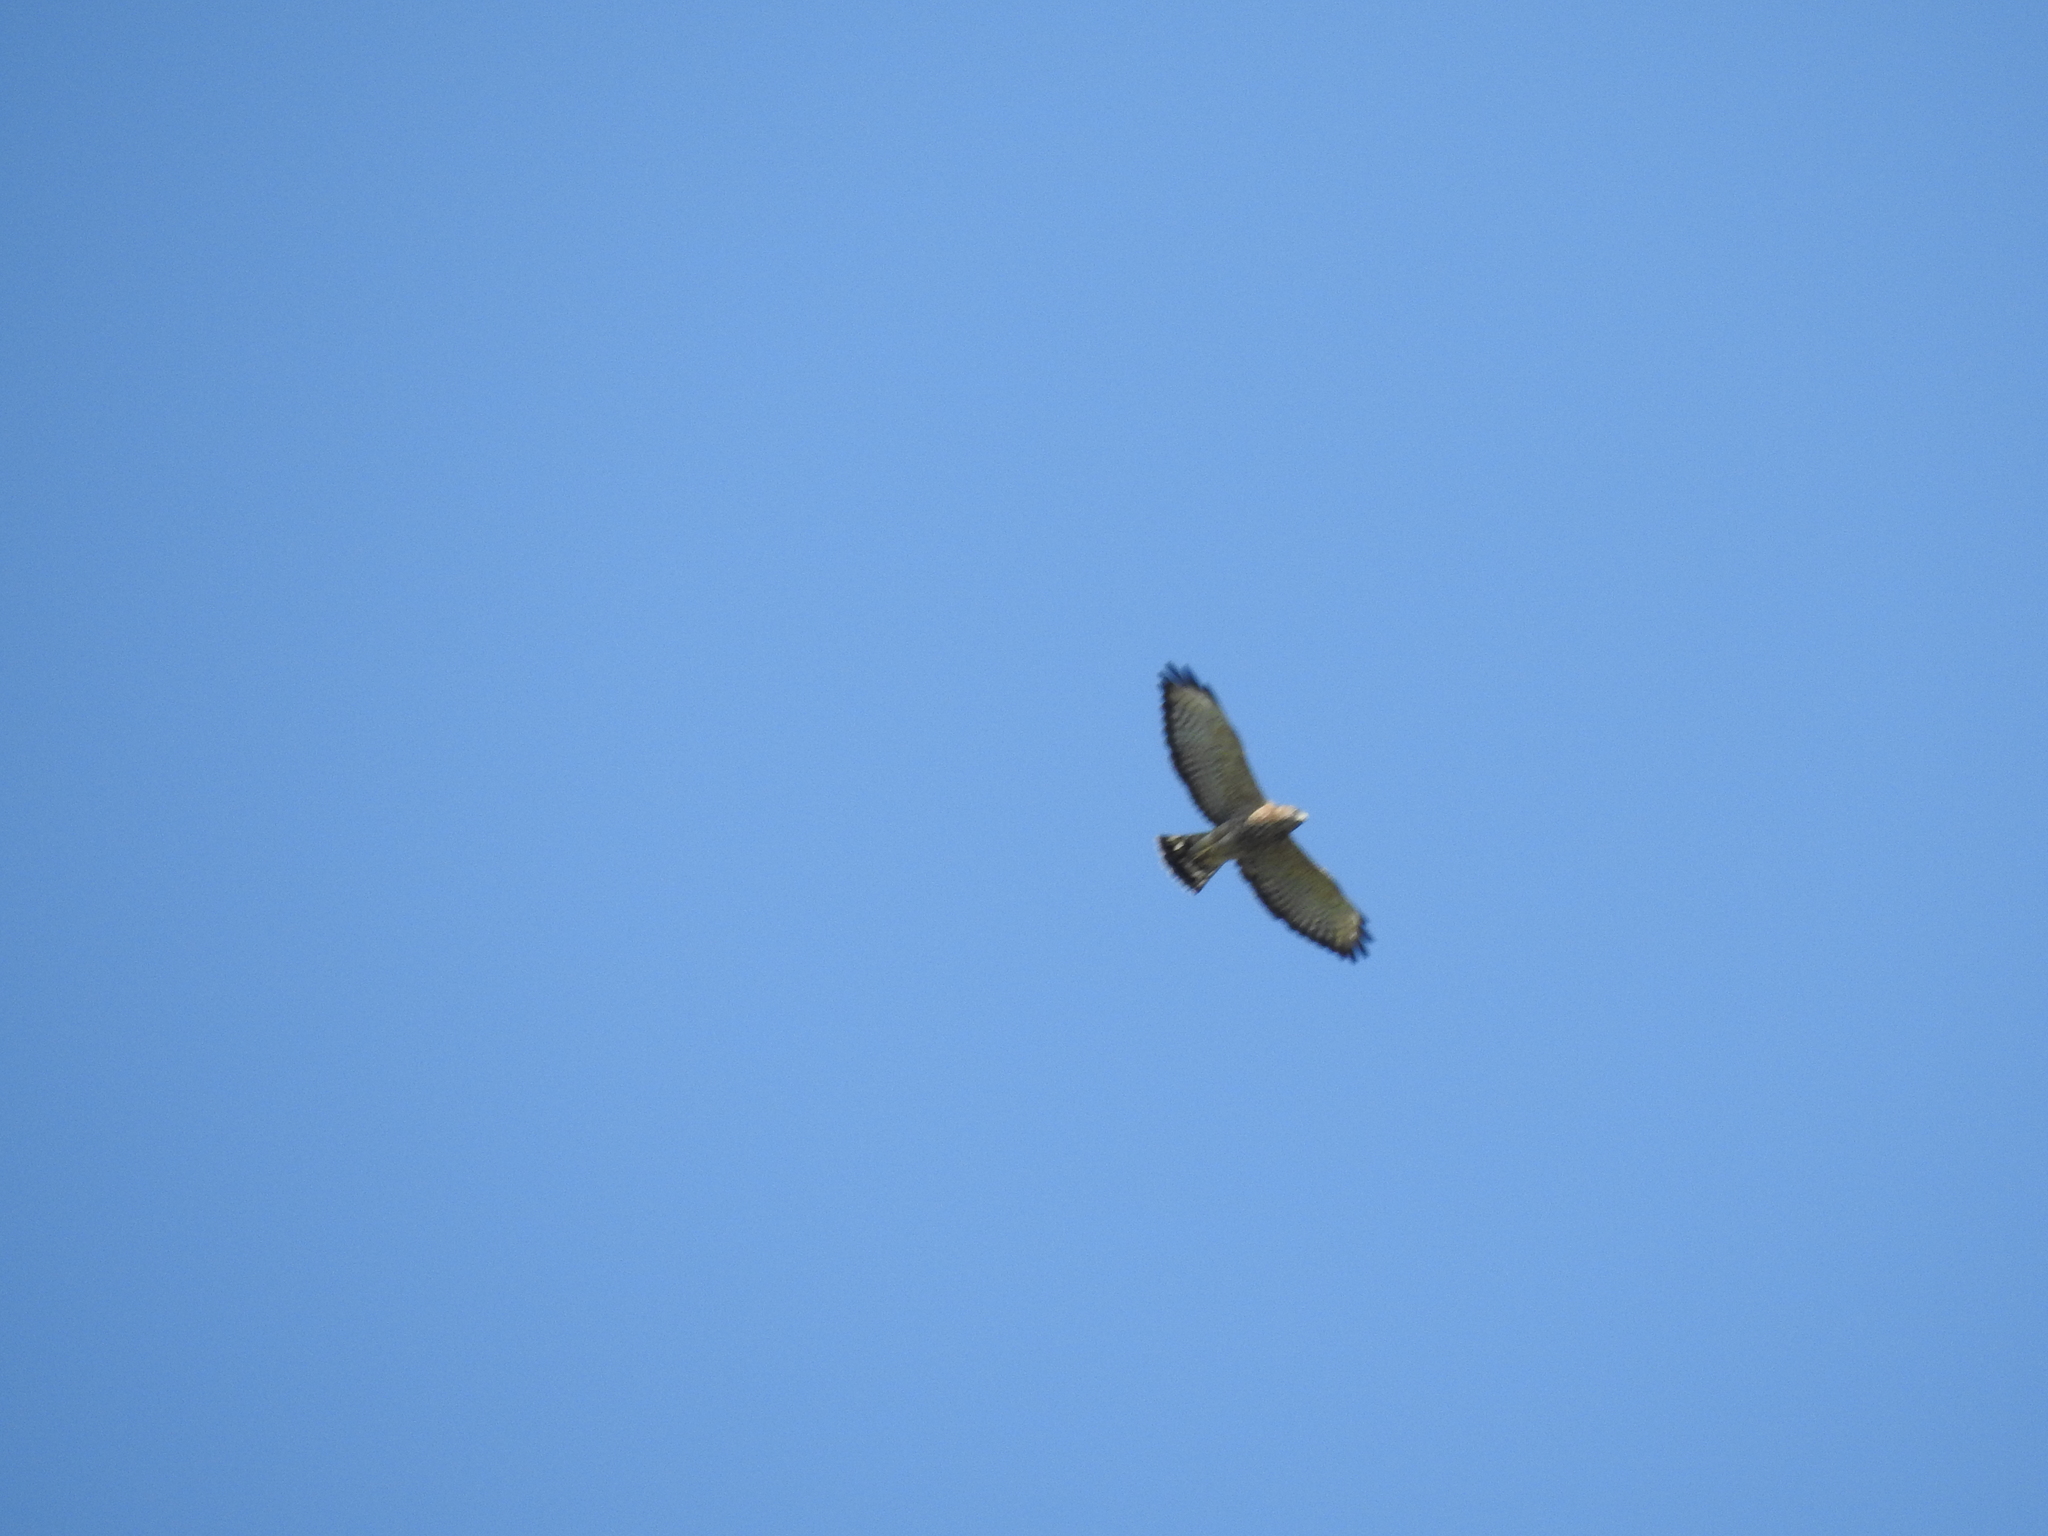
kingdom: Animalia
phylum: Chordata
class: Aves
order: Accipitriformes
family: Accipitridae
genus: Buteo
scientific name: Buteo platypterus
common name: Broad-winged hawk
